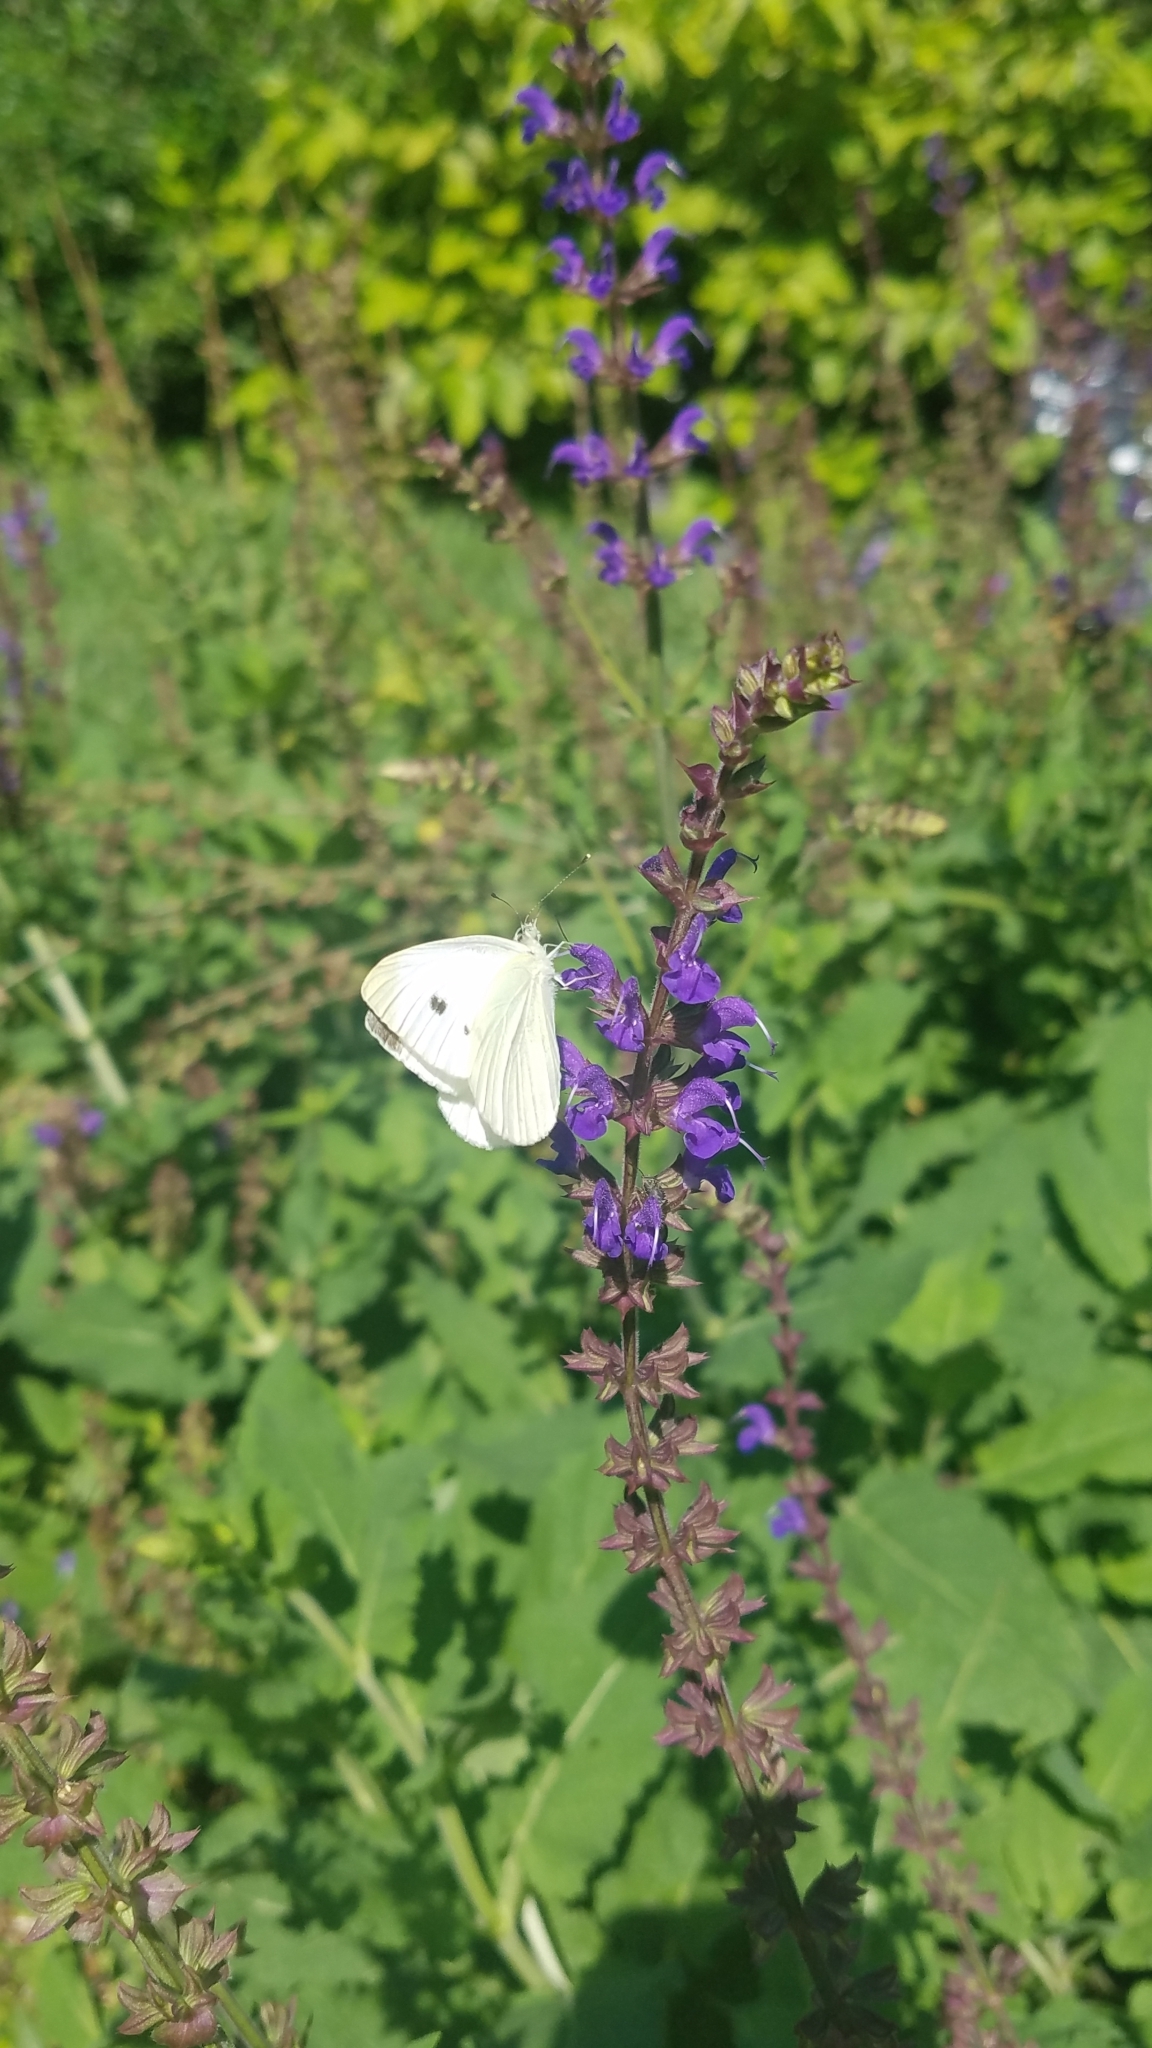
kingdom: Animalia
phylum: Arthropoda
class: Insecta
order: Lepidoptera
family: Pieridae
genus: Pieris
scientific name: Pieris rapae
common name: Small white
